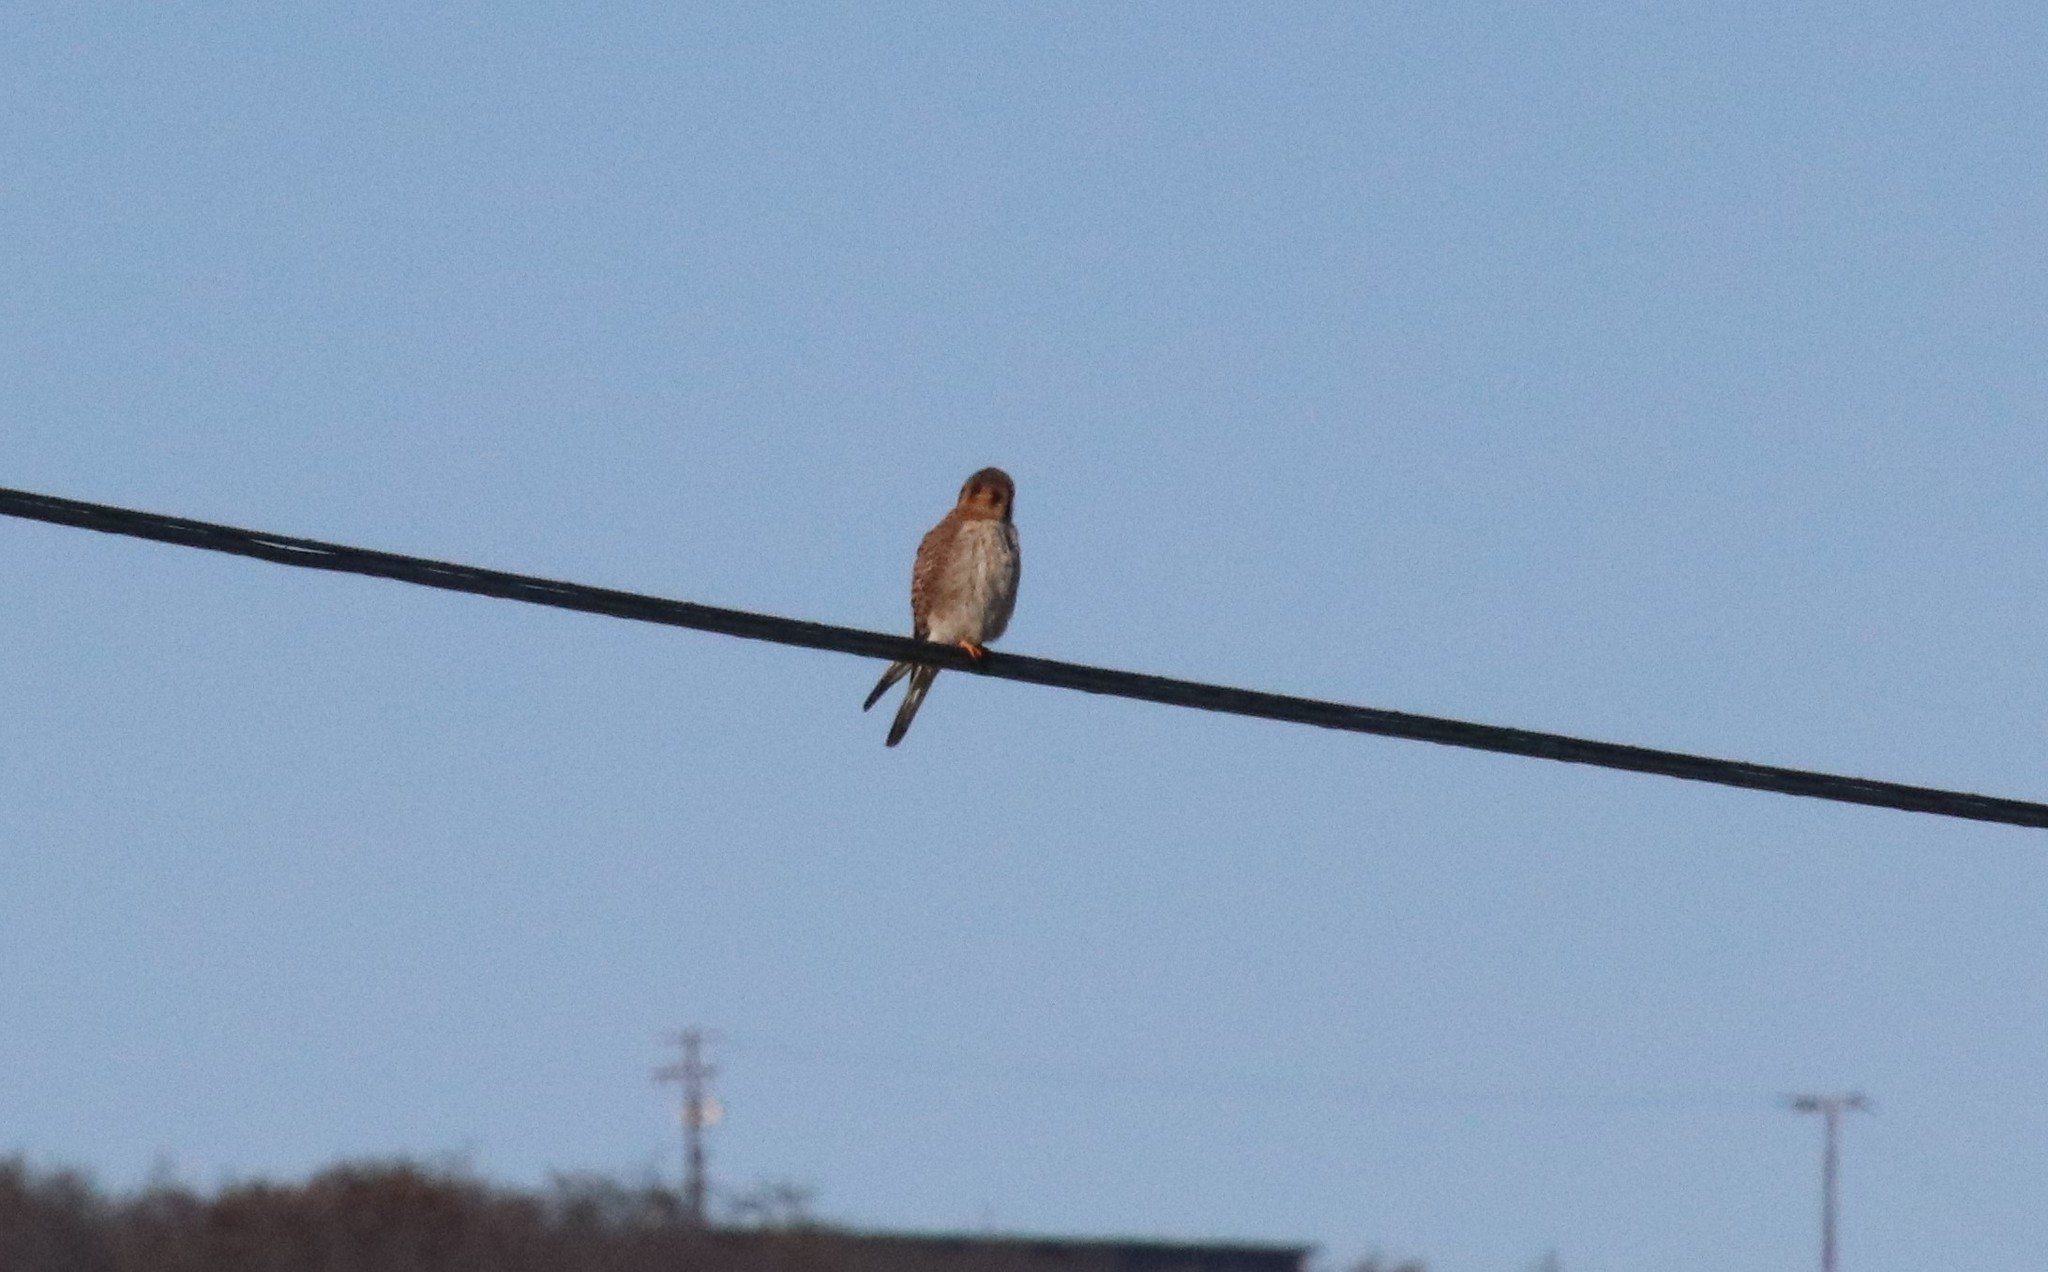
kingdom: Animalia
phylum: Chordata
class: Aves
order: Falconiformes
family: Falconidae
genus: Falco
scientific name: Falco sparverius
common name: American kestrel
